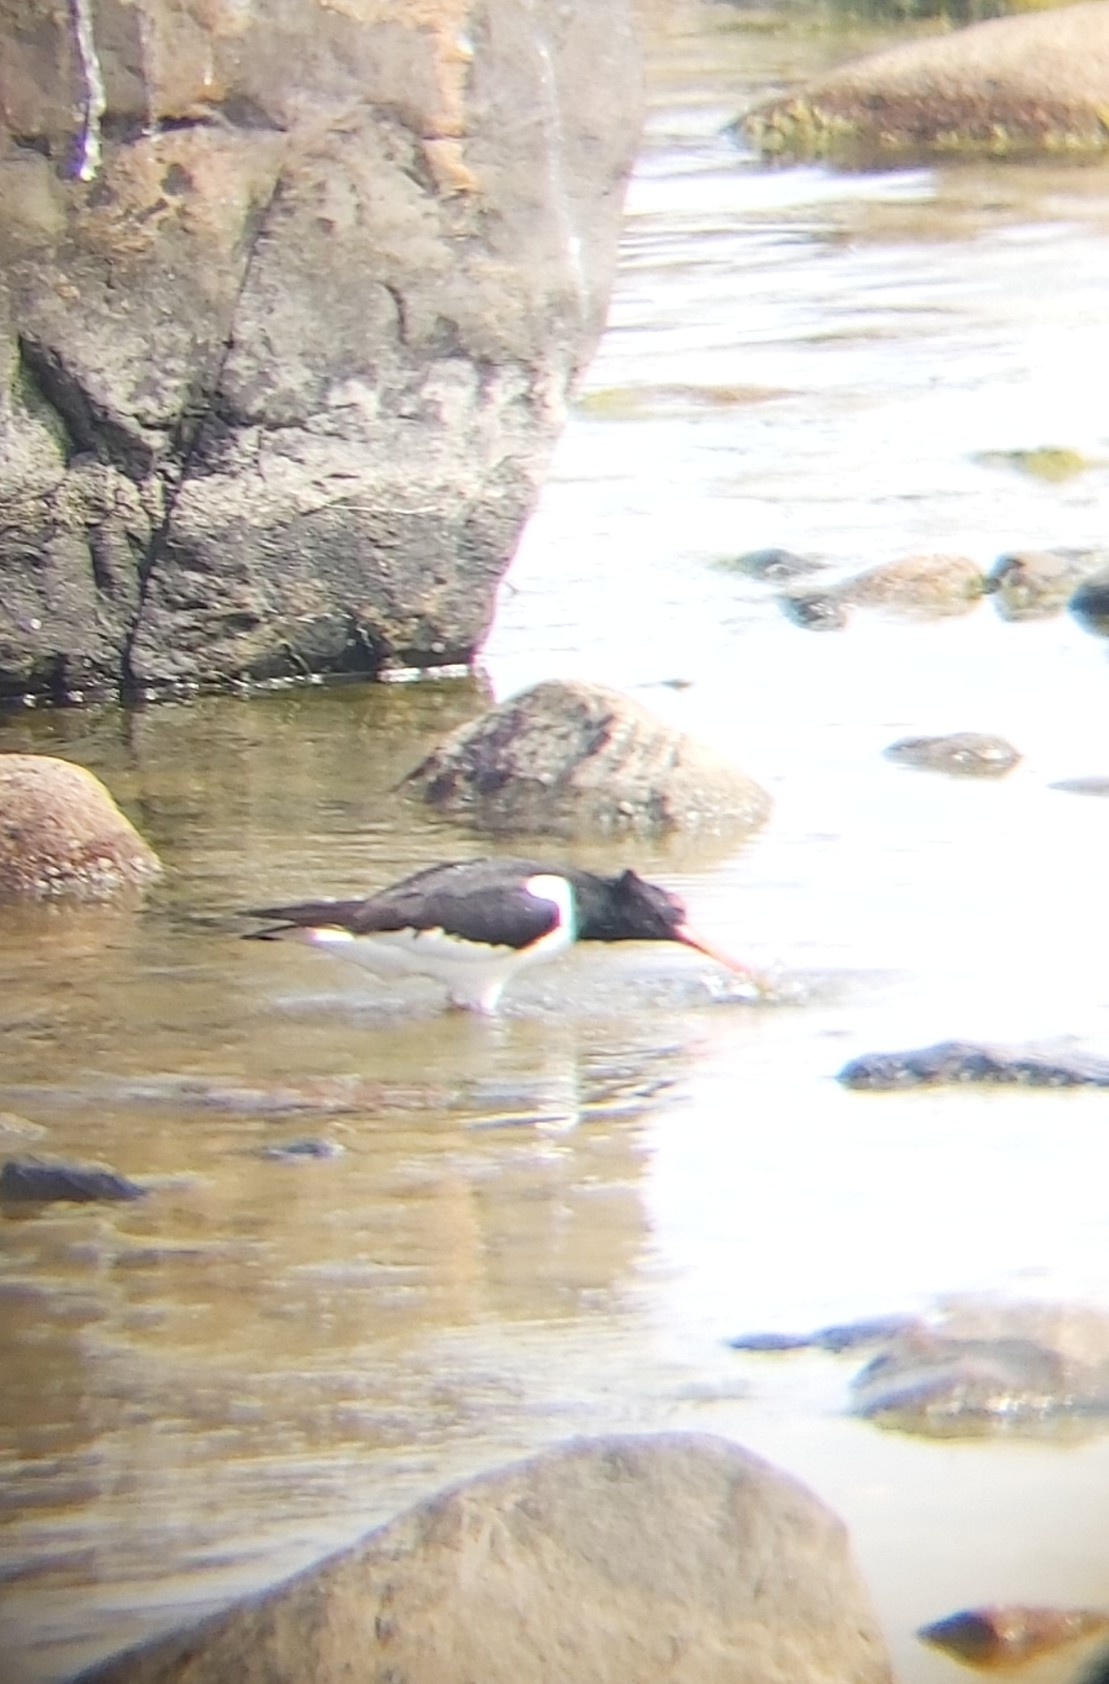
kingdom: Animalia
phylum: Chordata
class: Aves
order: Charadriiformes
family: Haematopodidae
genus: Haematopus
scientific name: Haematopus ostralegus
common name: Eurasian oystercatcher
